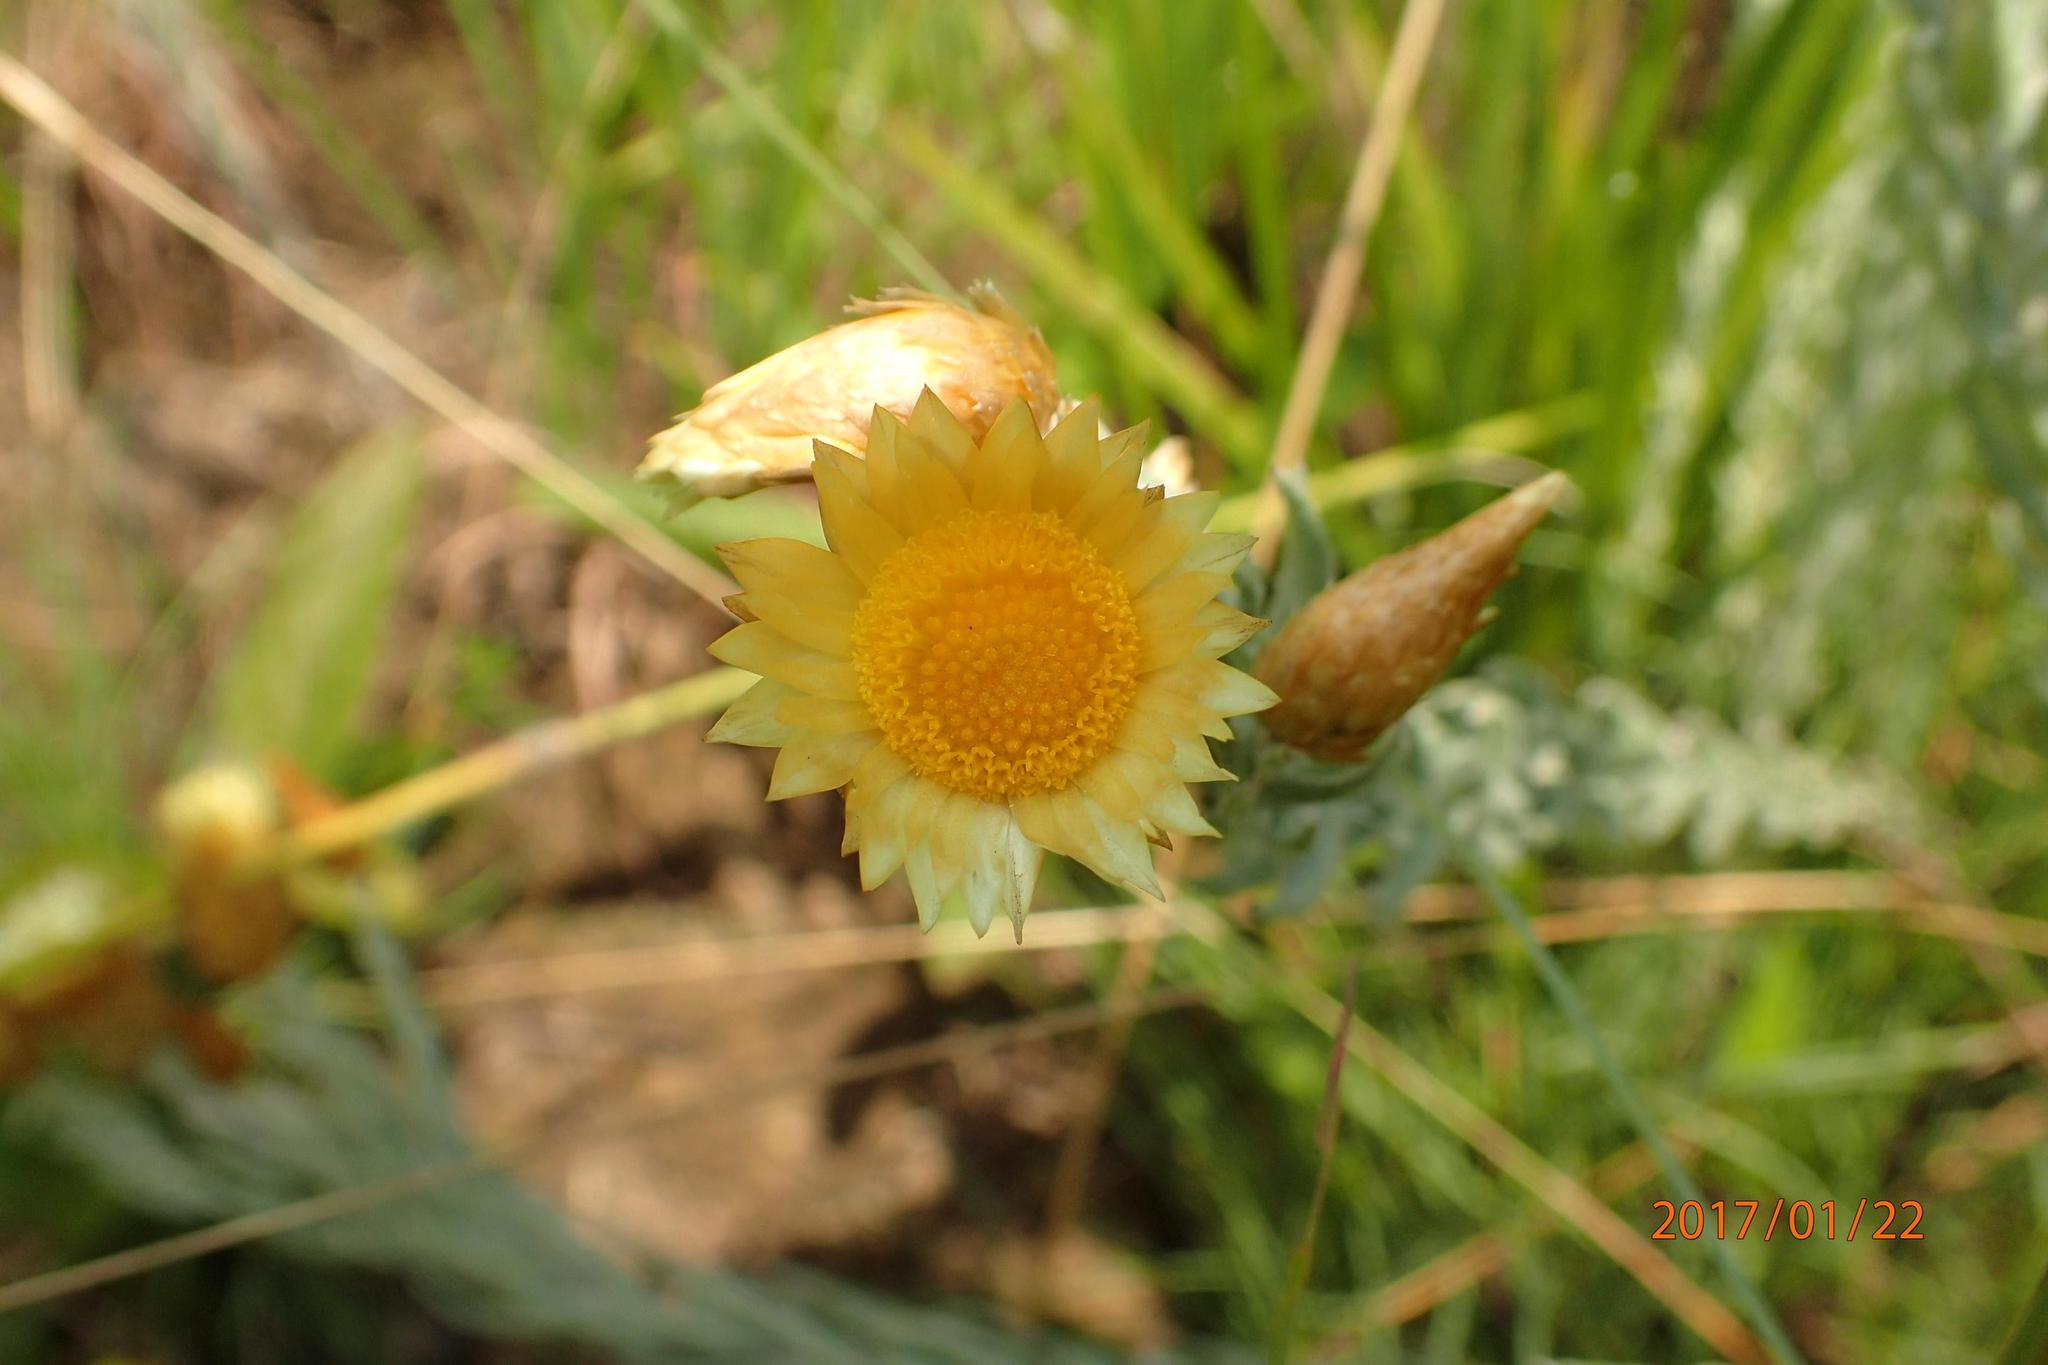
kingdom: Plantae
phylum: Tracheophyta
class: Magnoliopsida
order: Asterales
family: Asteraceae
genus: Helichrysum
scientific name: Helichrysum herbaceum
